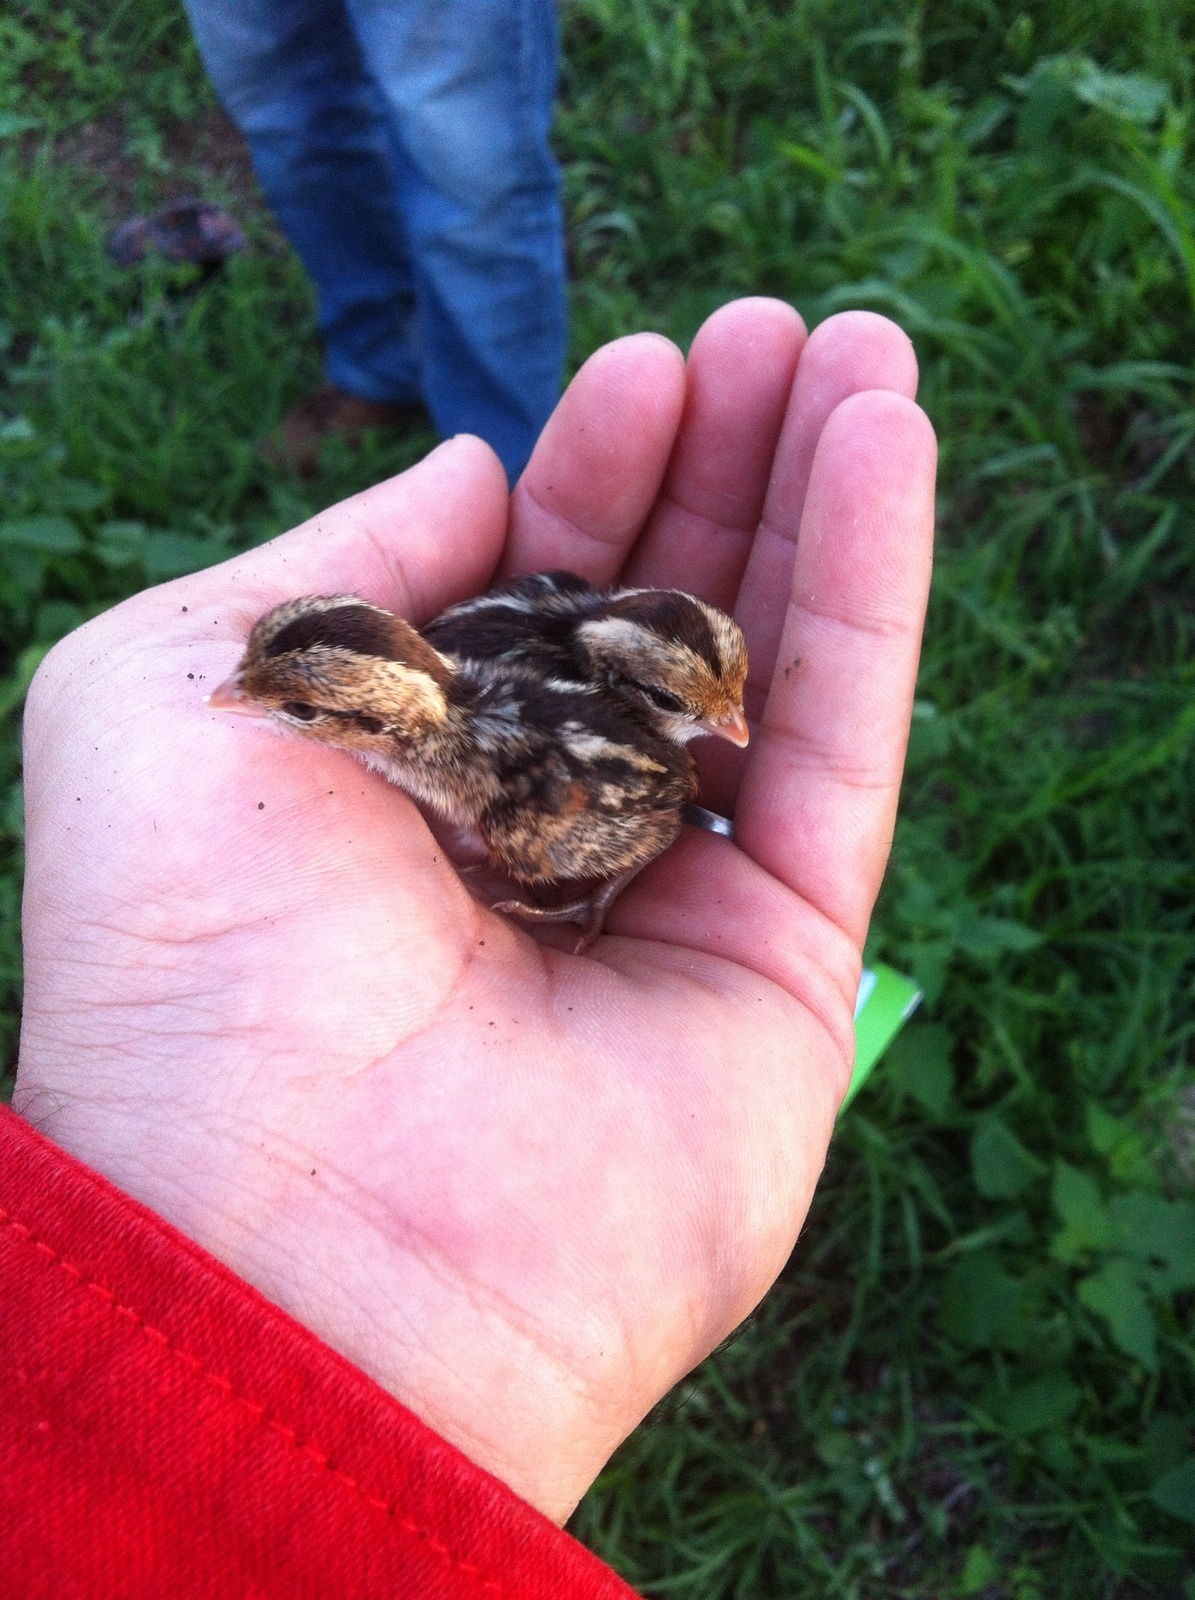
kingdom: Animalia
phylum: Chordata
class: Aves
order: Galliformes
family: Odontophoridae
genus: Colinus
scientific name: Colinus nigrogularis
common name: Yucatan bobwhite
